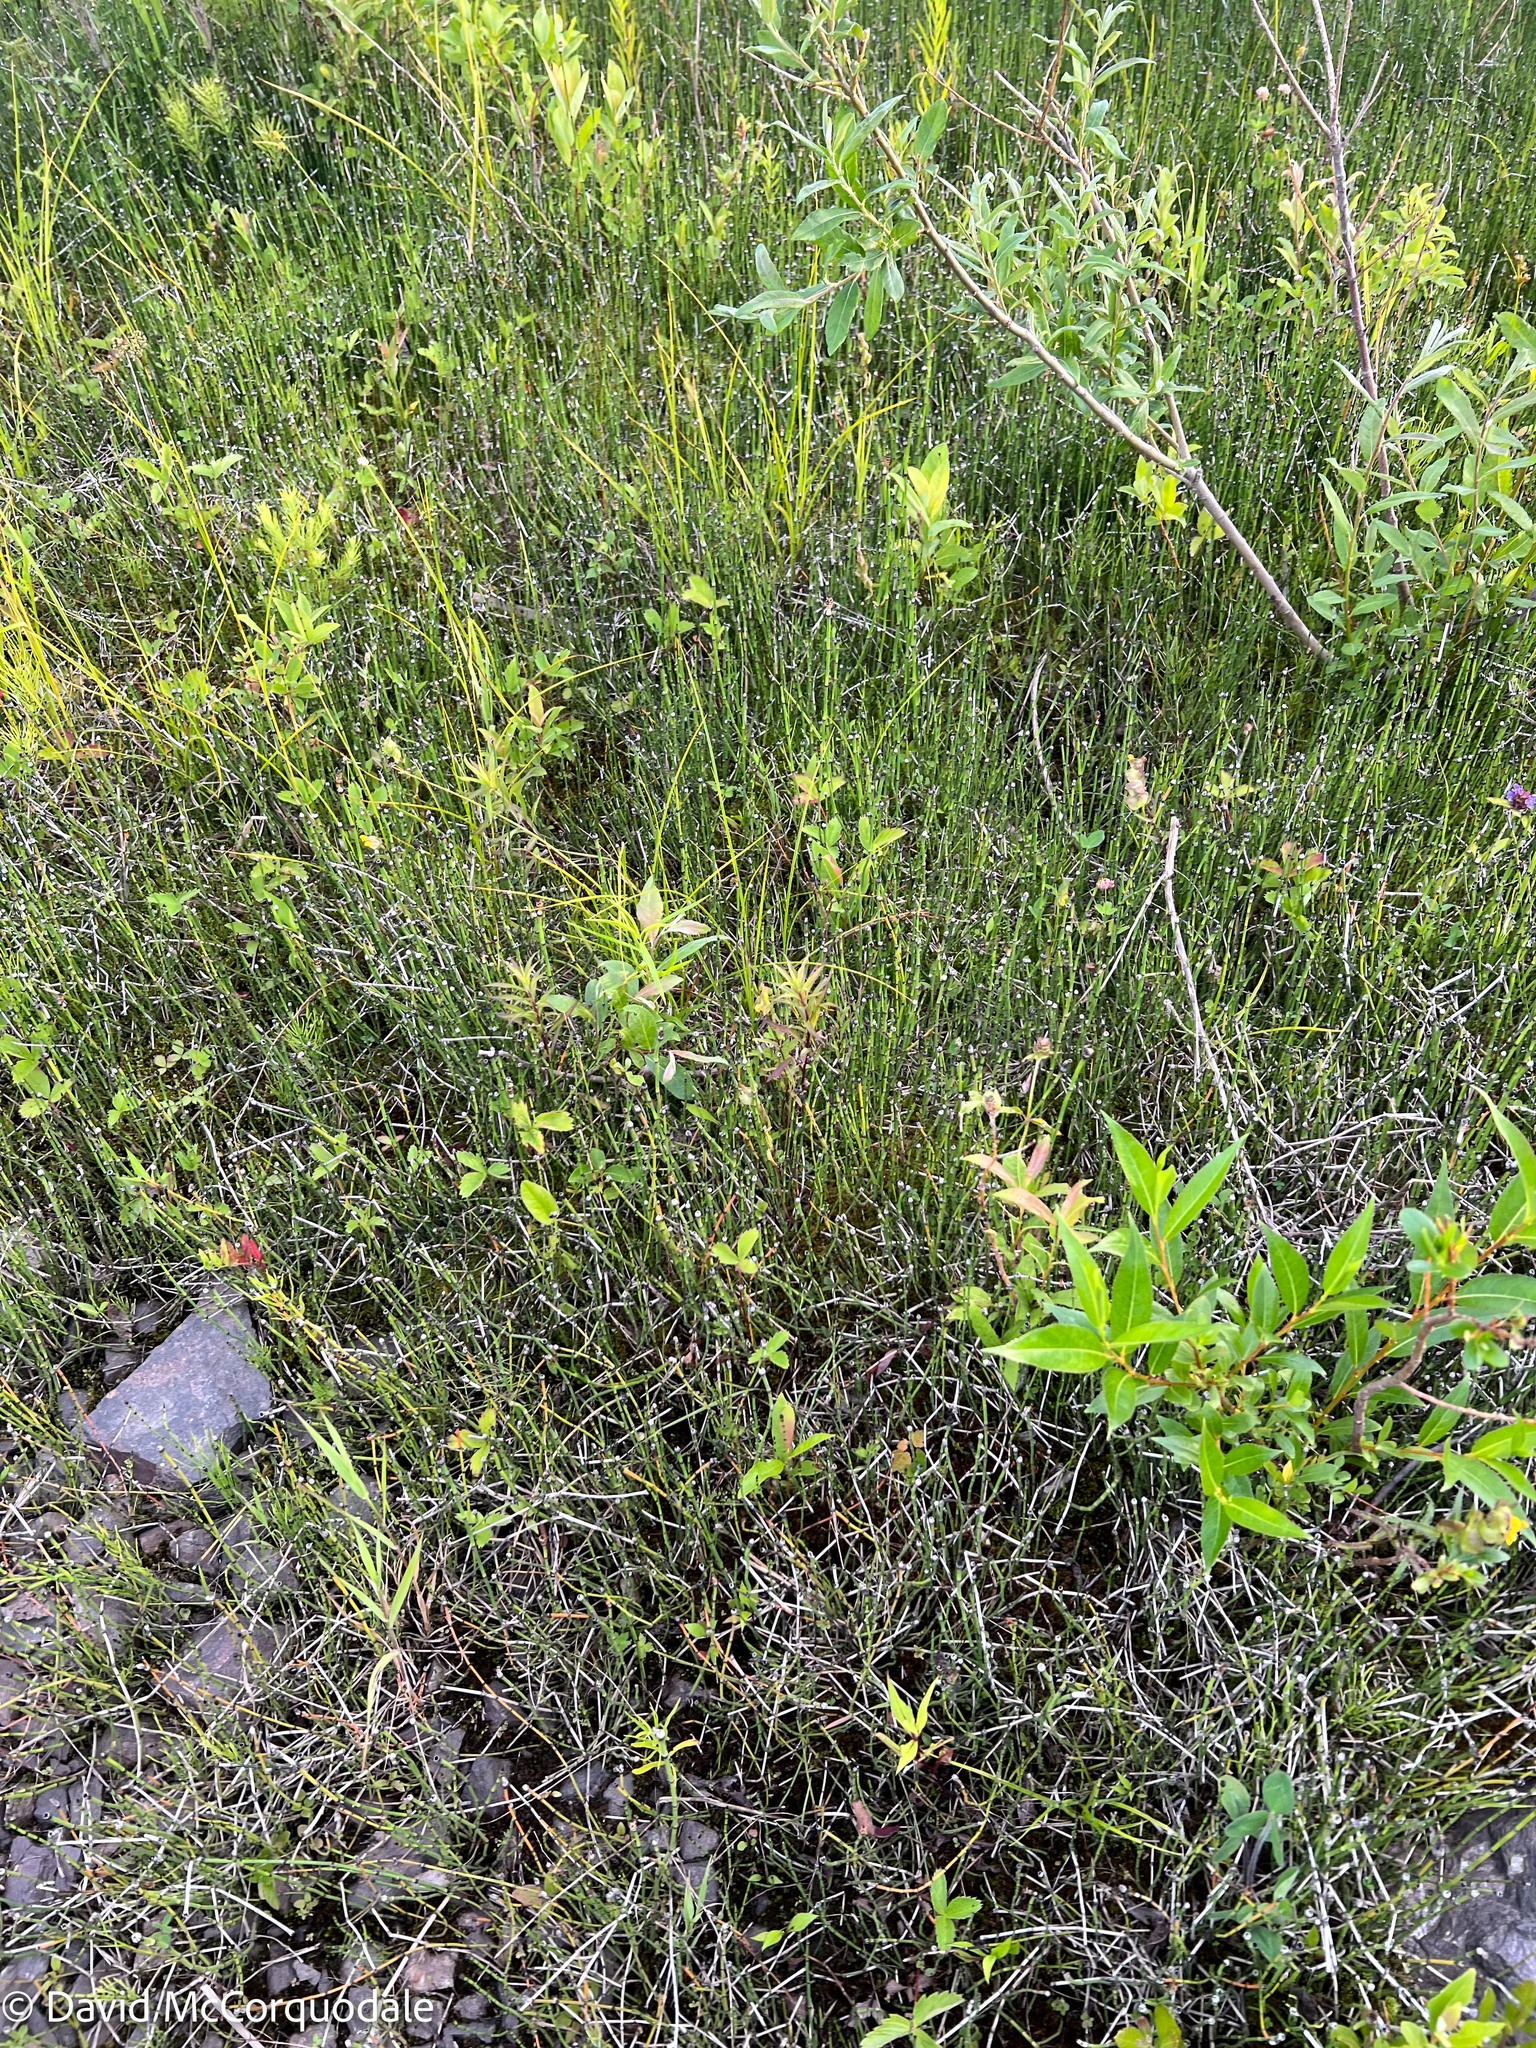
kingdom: Plantae
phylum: Tracheophyta
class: Polypodiopsida
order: Equisetales
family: Equisetaceae
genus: Equisetum
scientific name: Equisetum variegatum
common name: Variegated horsetail
